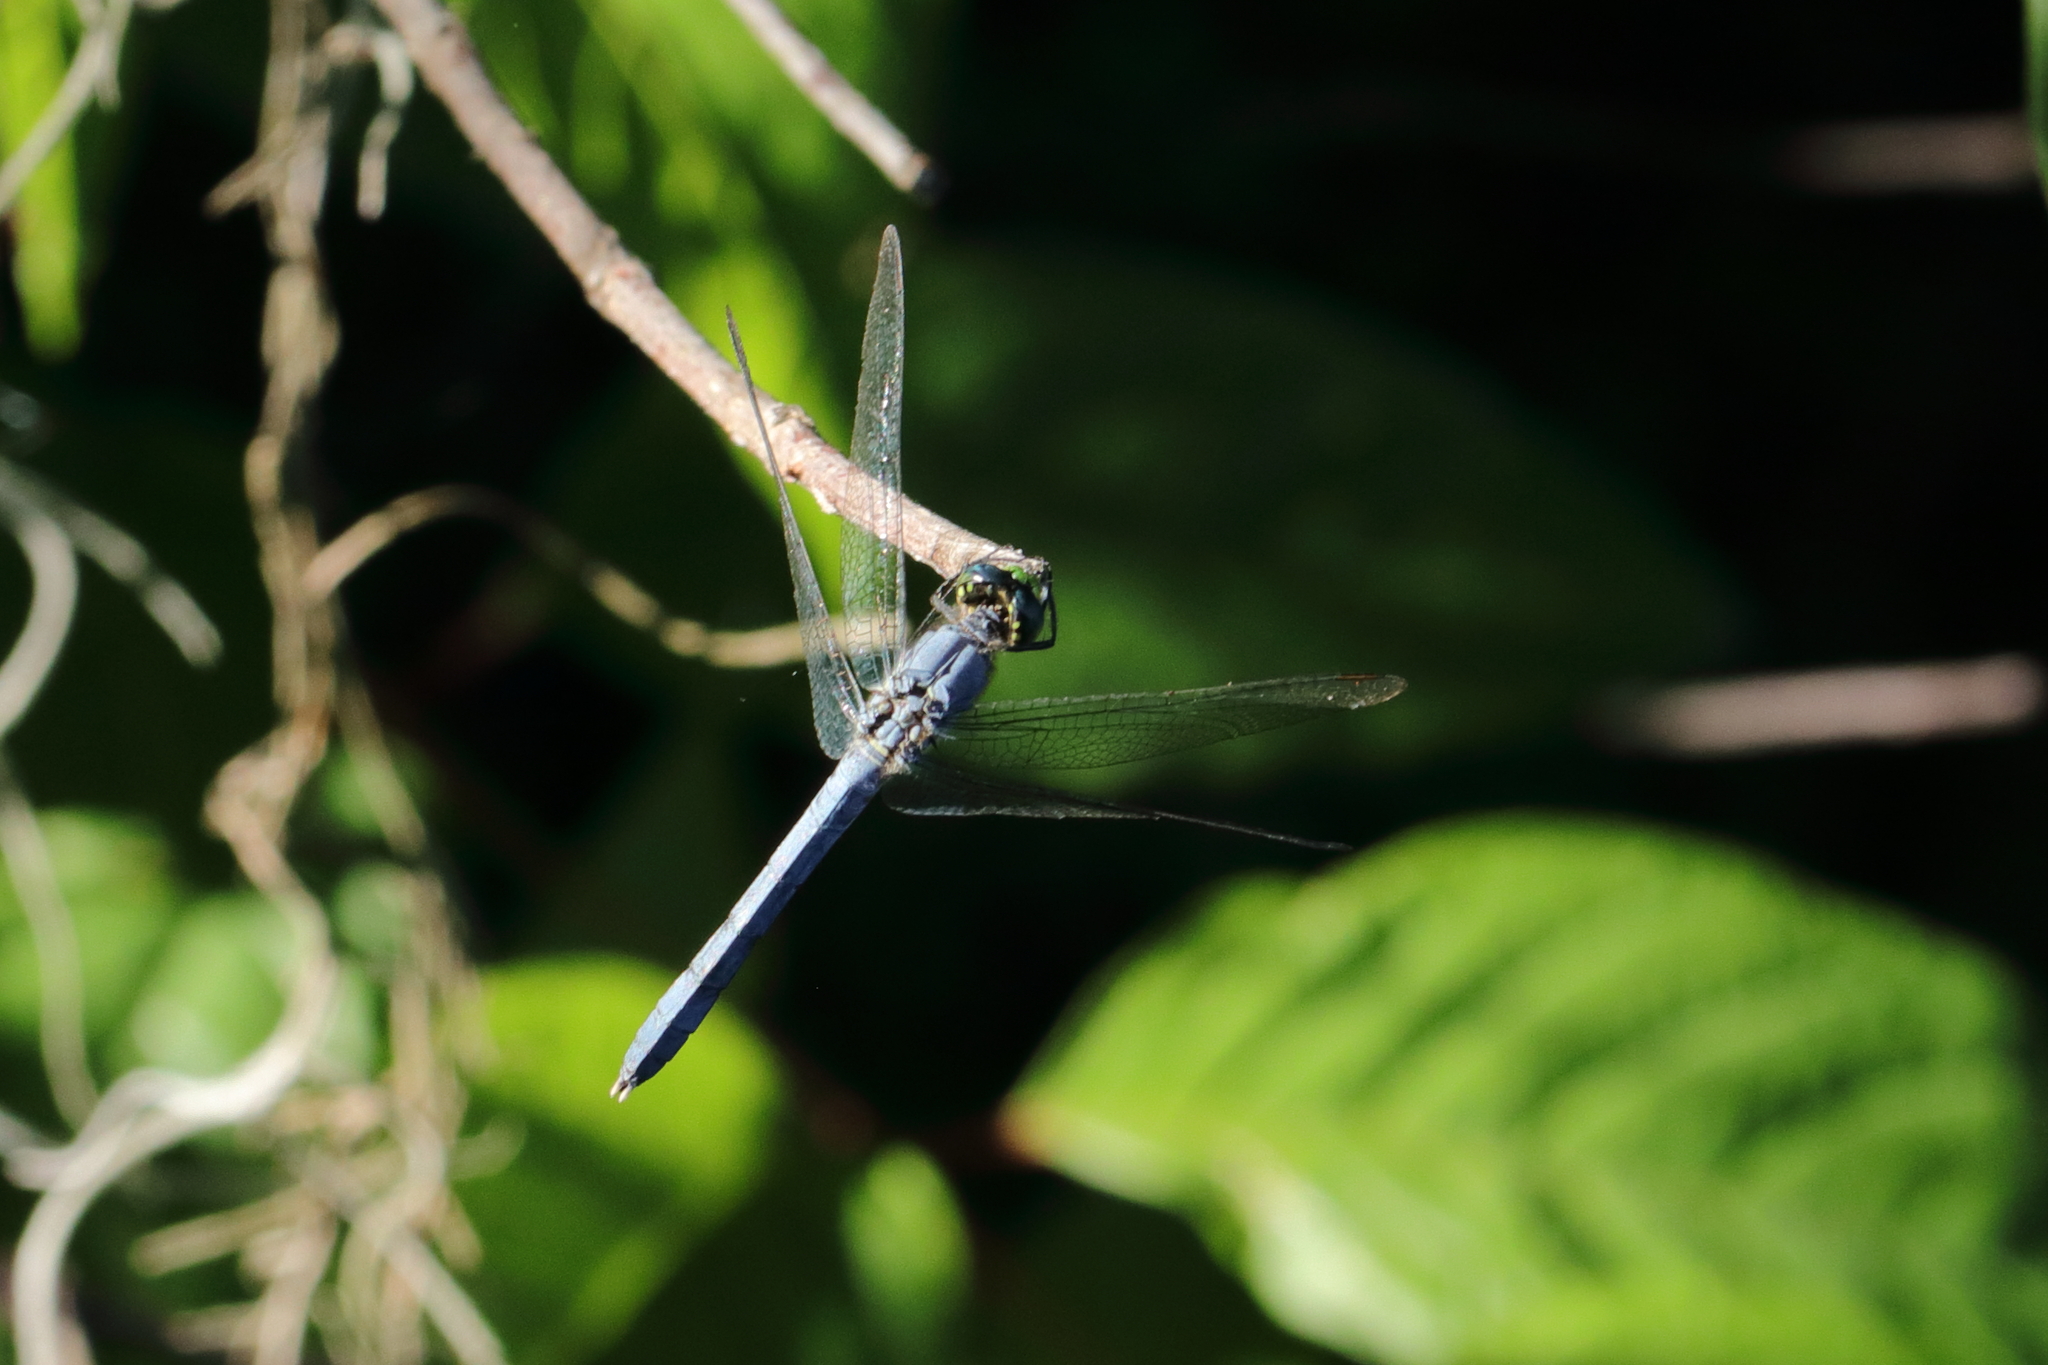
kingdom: Animalia
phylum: Arthropoda
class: Insecta
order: Odonata
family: Libellulidae
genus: Erythemis
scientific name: Erythemis simplicicollis
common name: Eastern pondhawk
